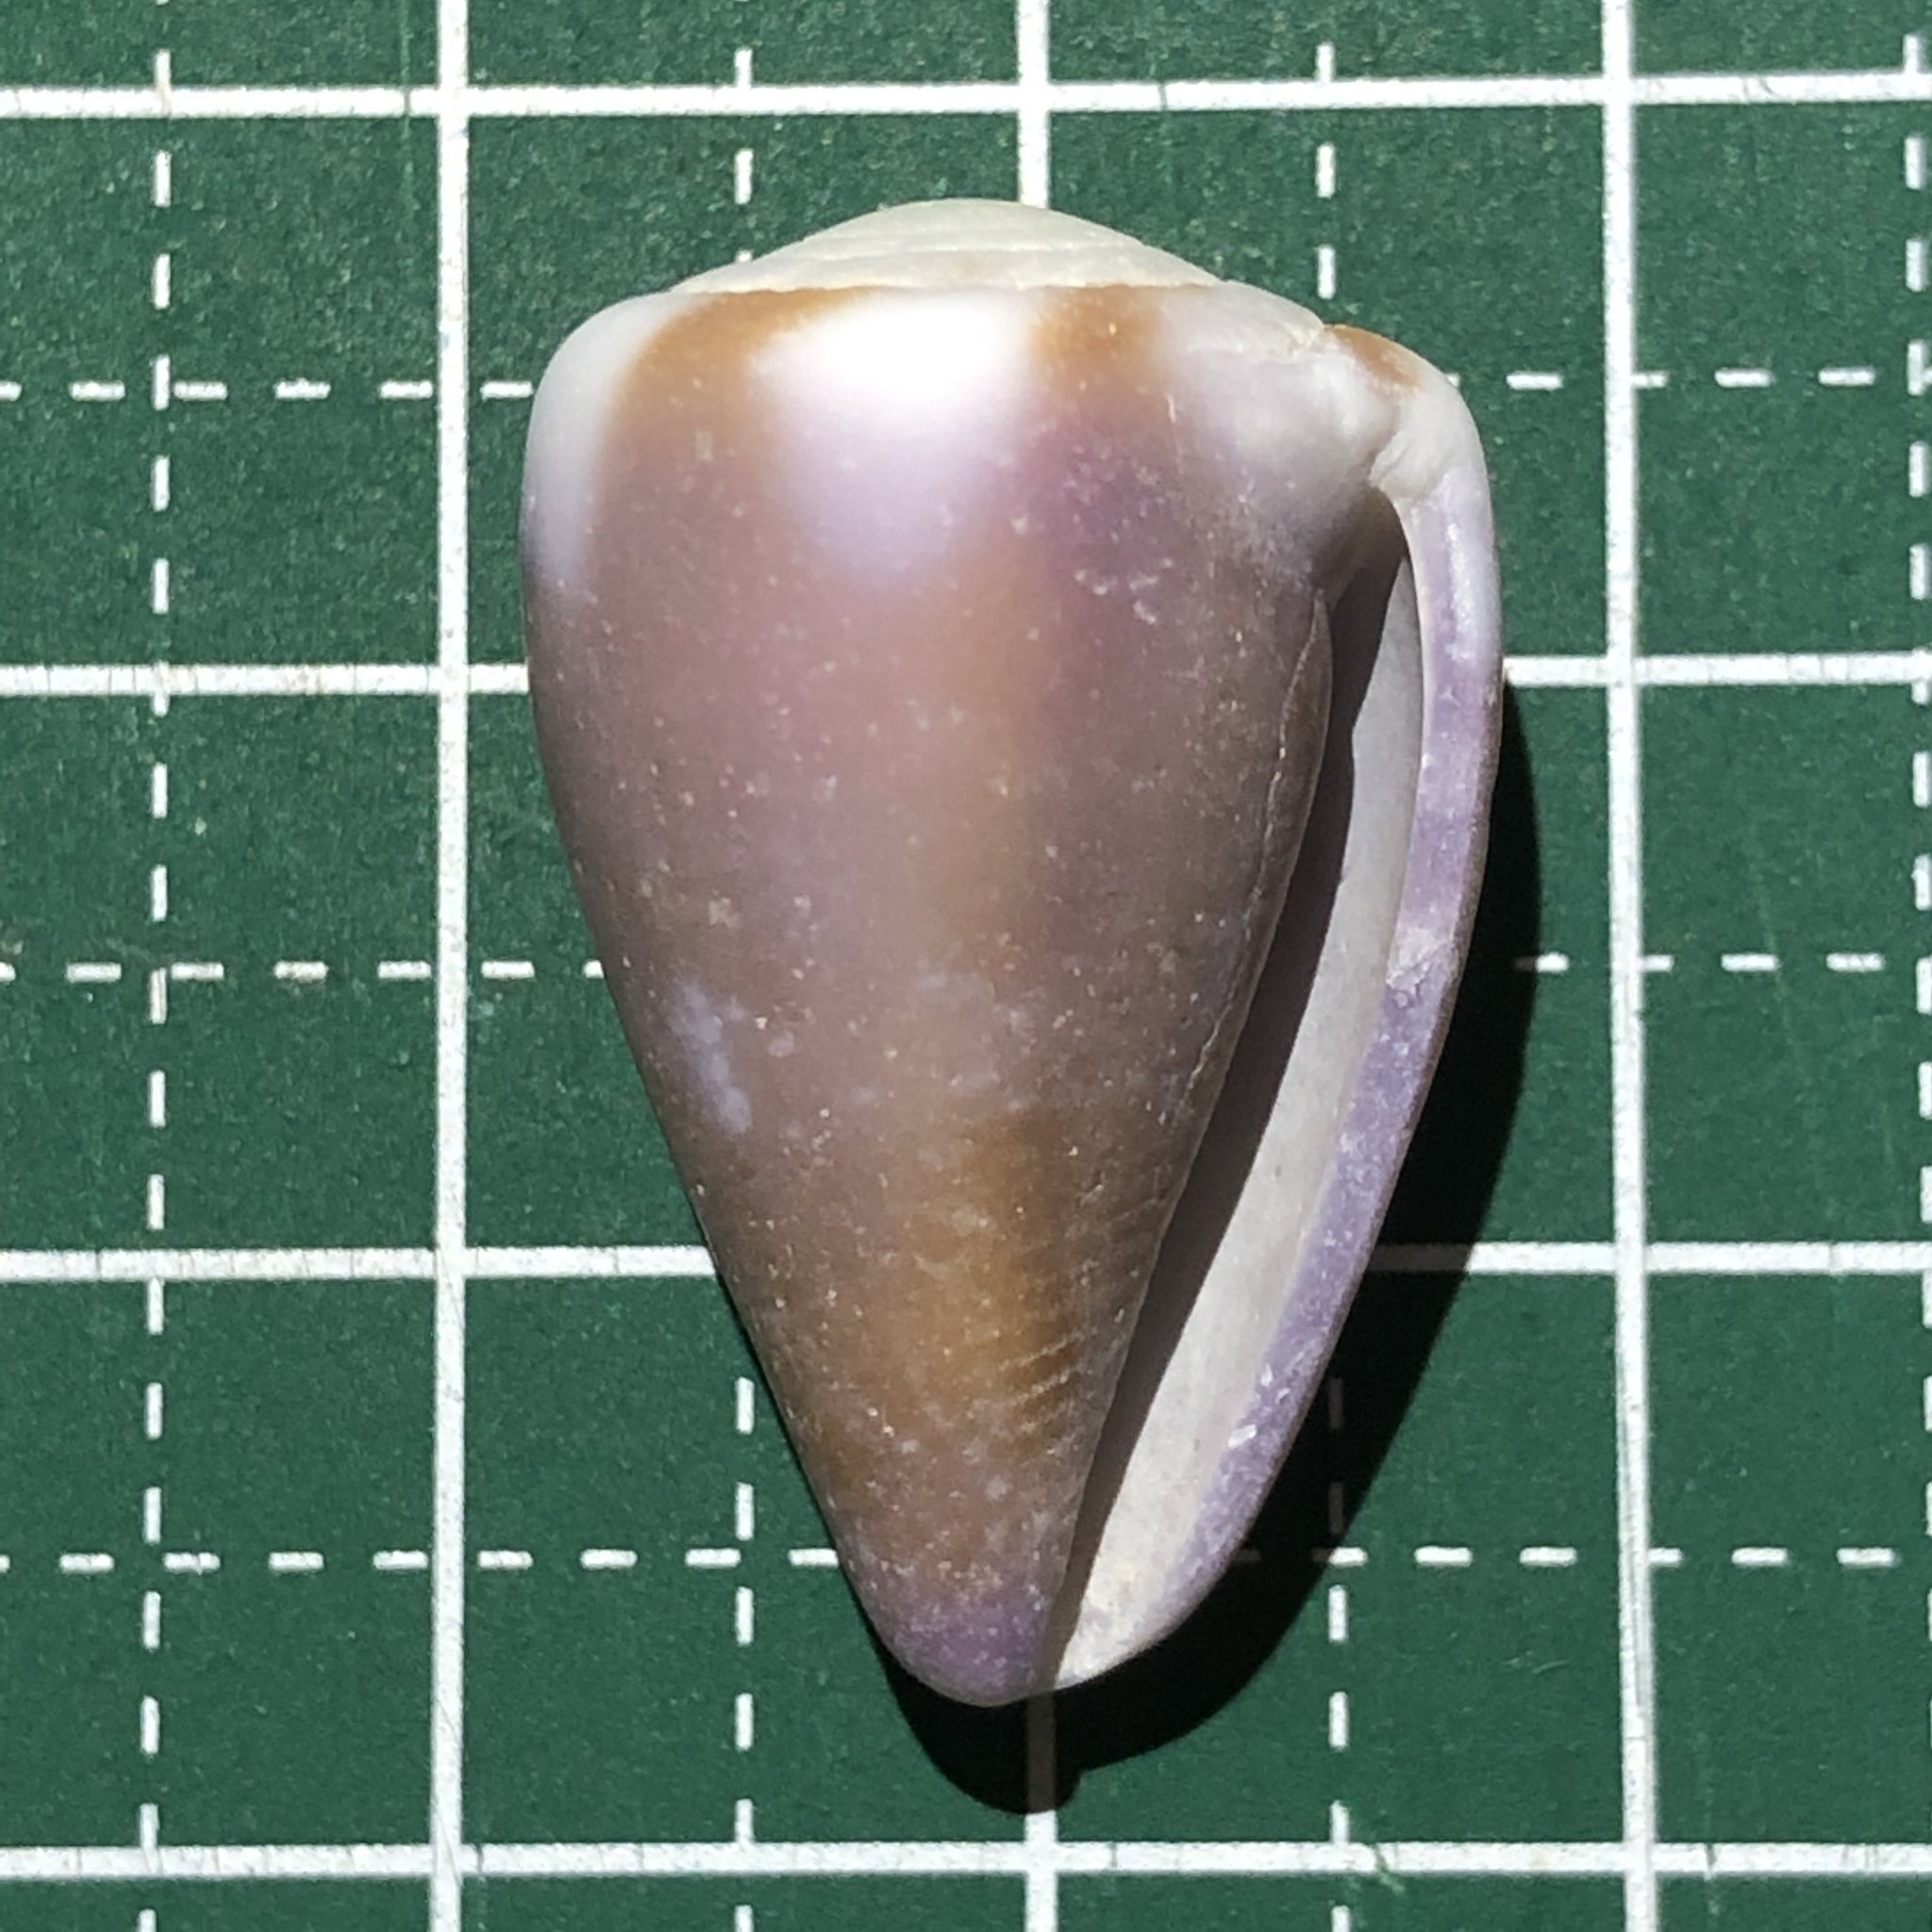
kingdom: Animalia
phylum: Mollusca
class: Gastropoda
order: Neogastropoda
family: Conidae
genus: Conus
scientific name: Conus rattus
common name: Rat cone
